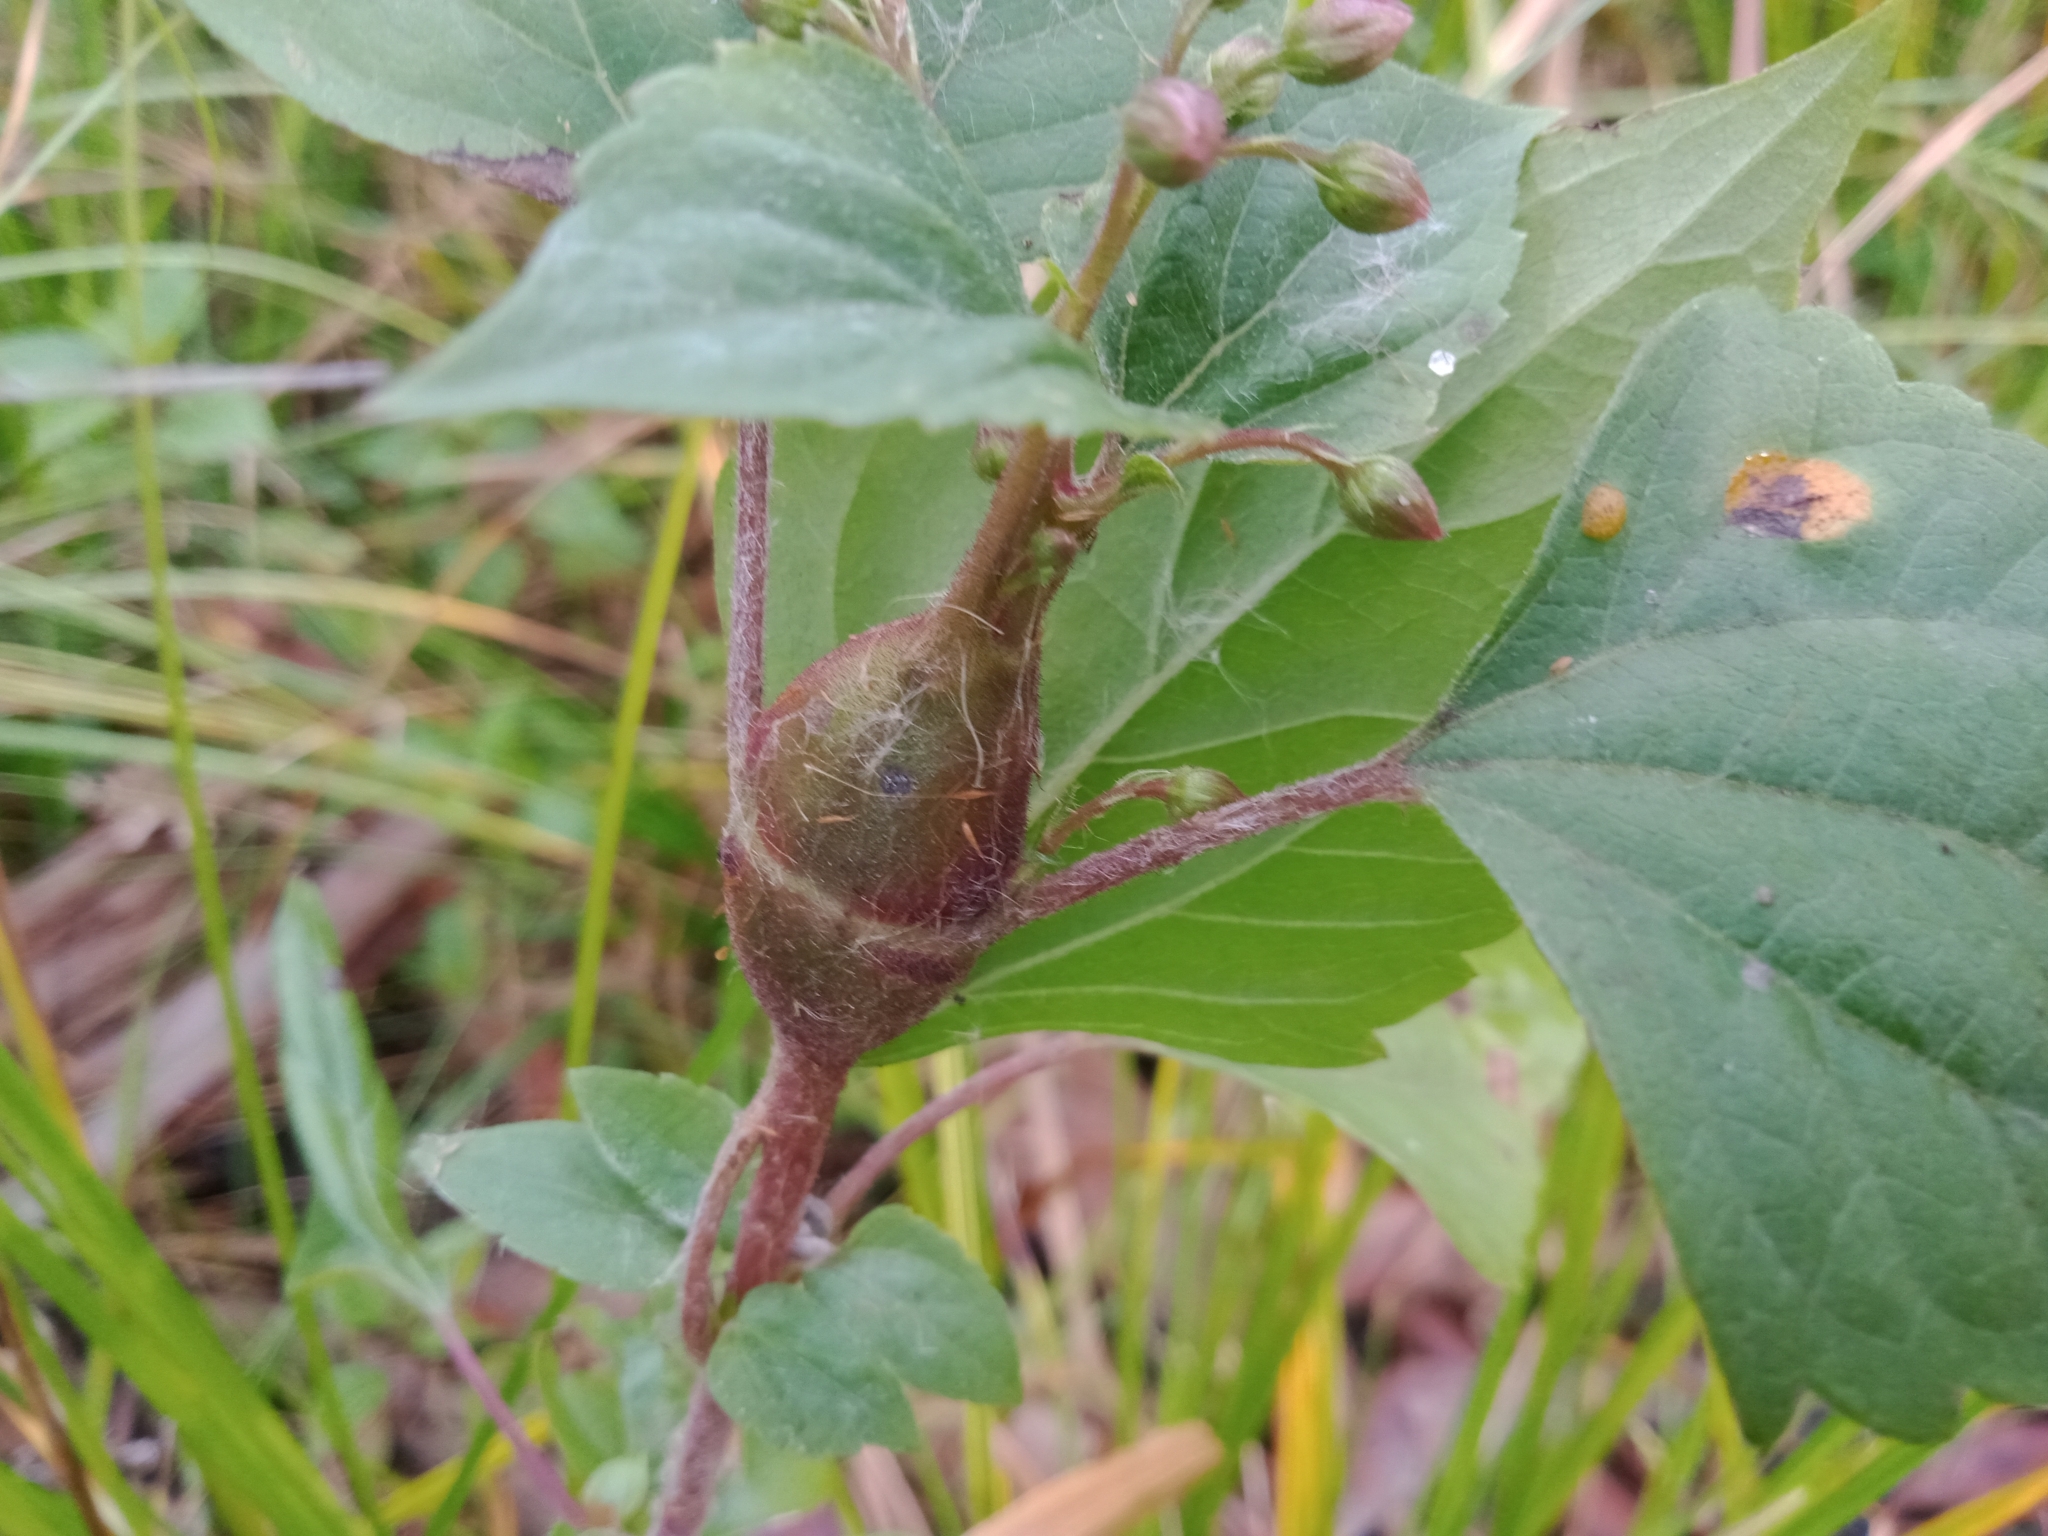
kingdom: Plantae
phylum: Tracheophyta
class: Magnoliopsida
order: Asterales
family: Asteraceae
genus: Ageratina
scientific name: Ageratina adenophora
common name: Sticky snakeroot
